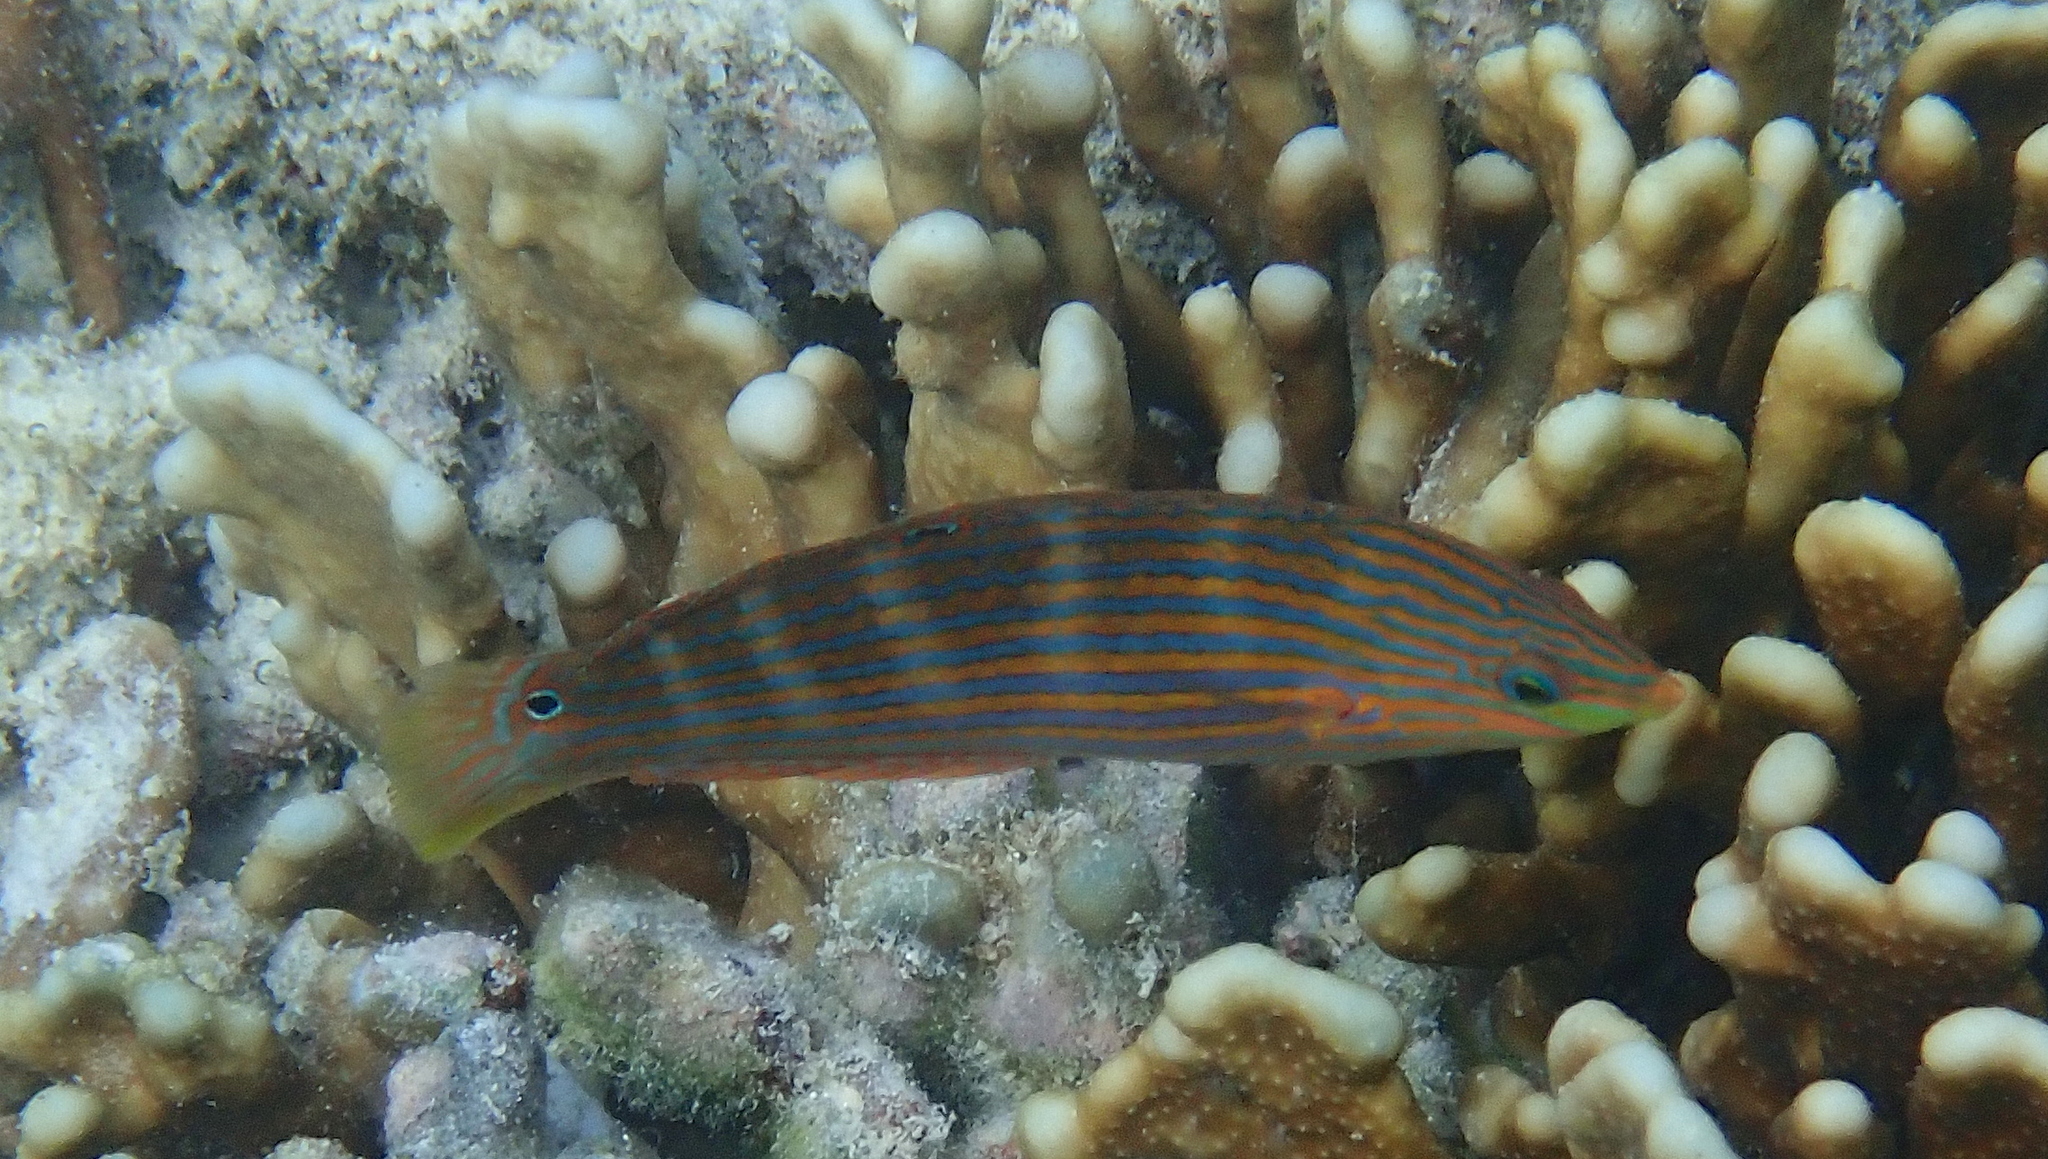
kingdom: Animalia
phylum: Chordata
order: Perciformes
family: Labridae
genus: Halichoeres
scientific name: Halichoeres melanurus
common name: Hoeven's wrasse
